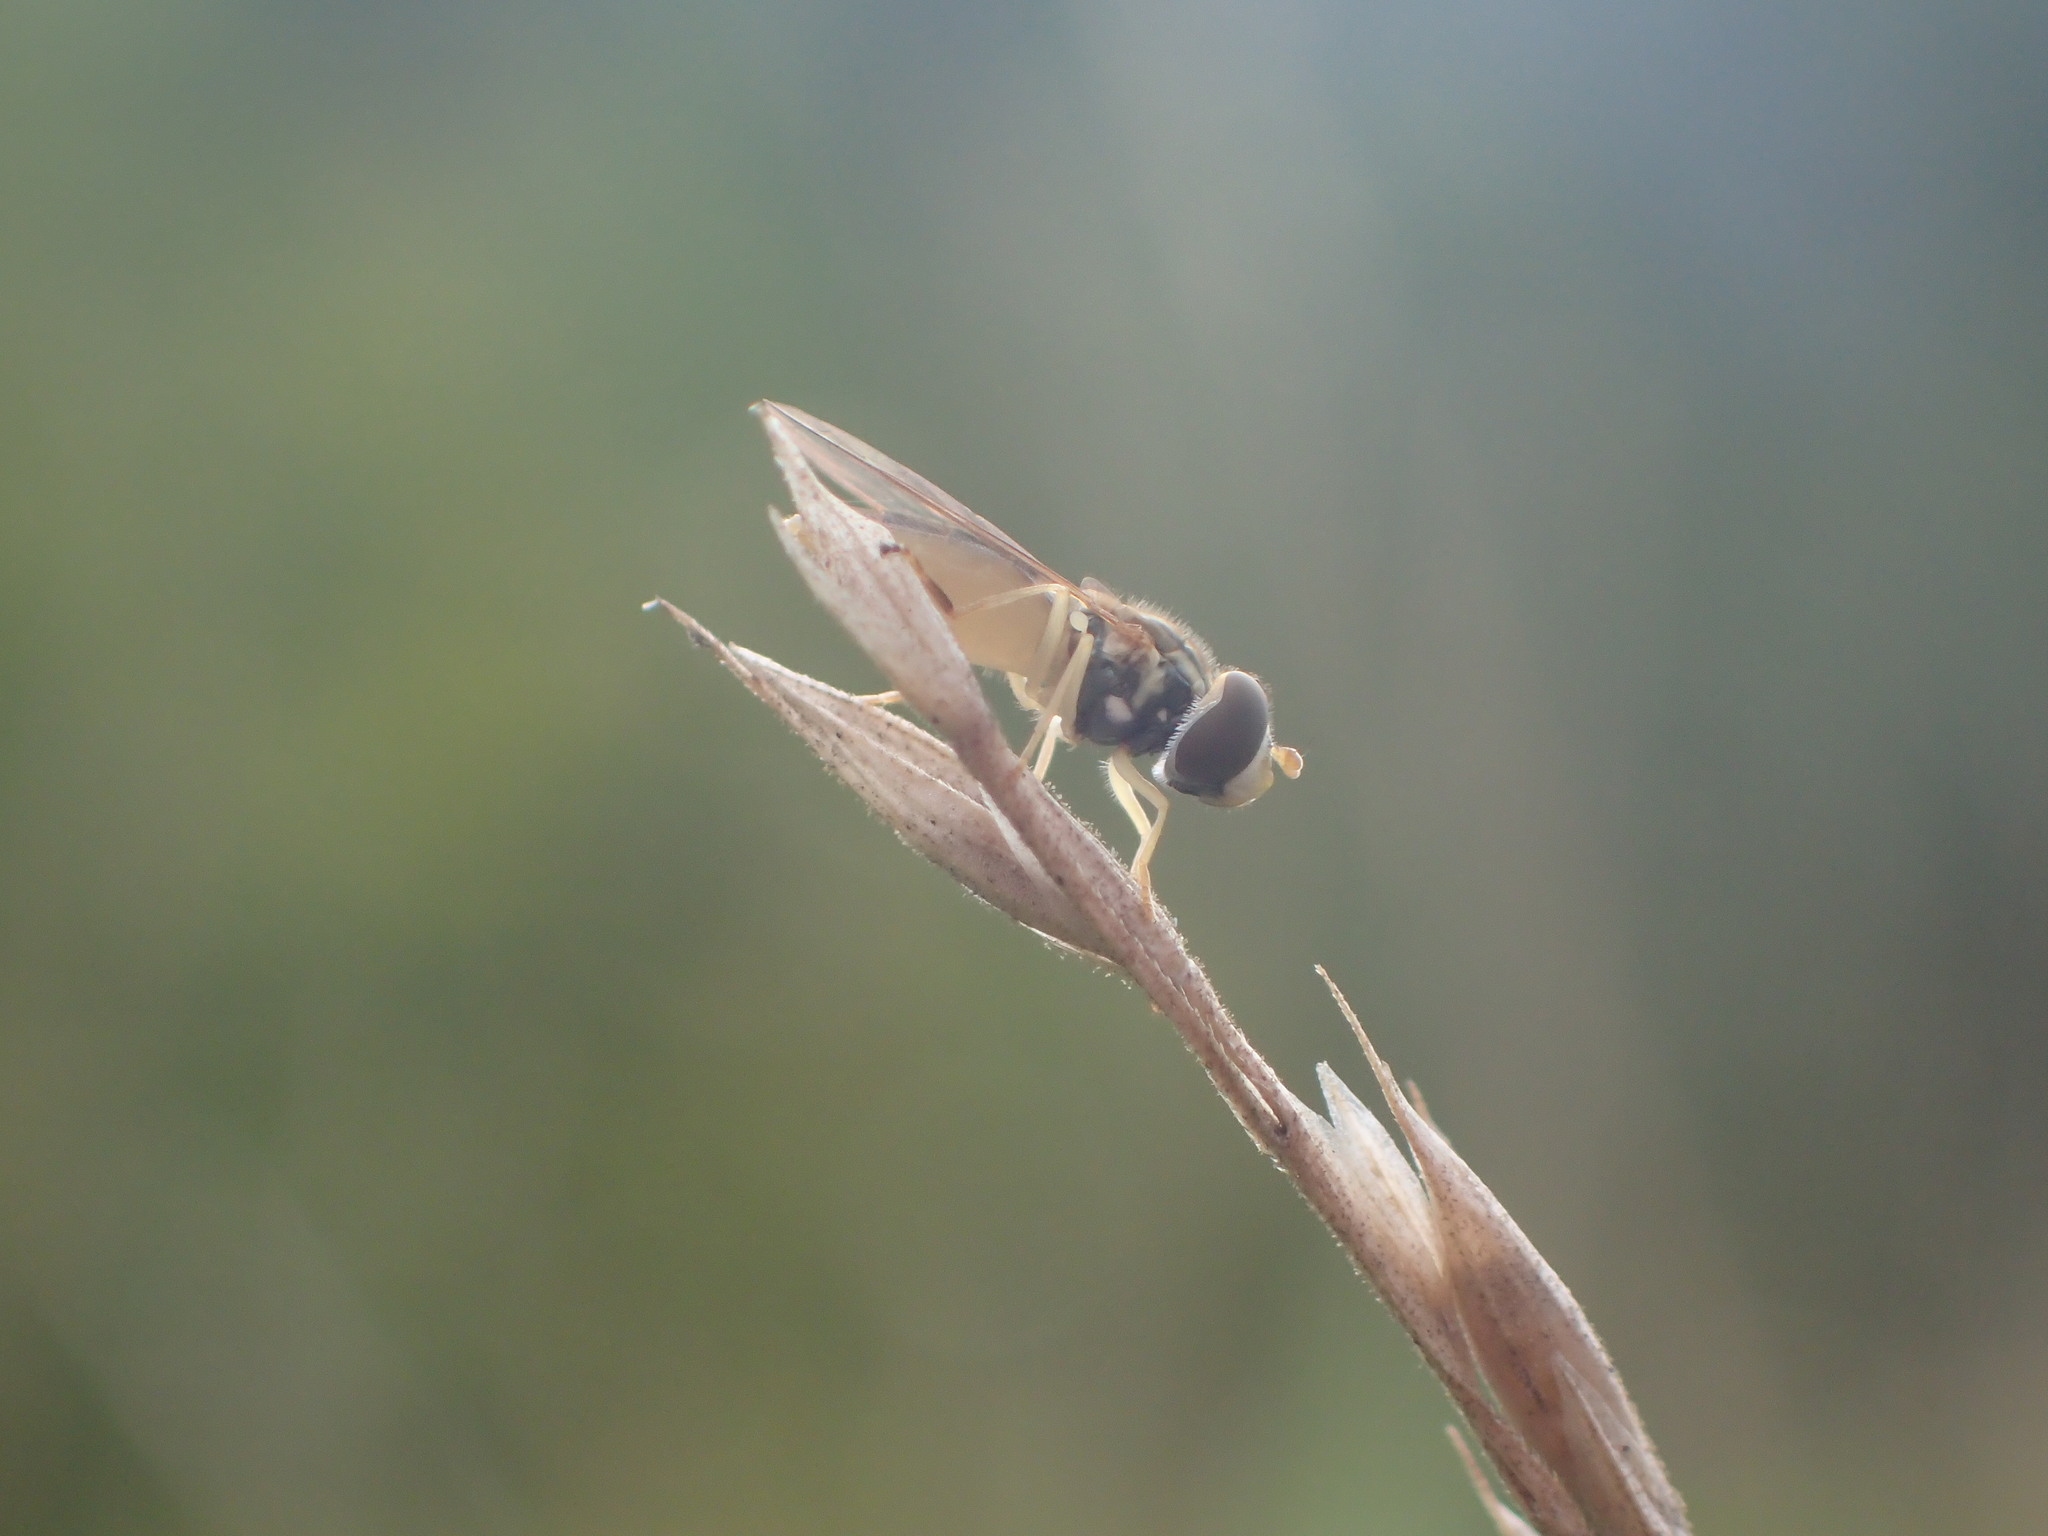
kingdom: Animalia
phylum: Arthropoda
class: Insecta
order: Diptera
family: Syrphidae
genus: Toxomerus
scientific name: Toxomerus marginatus
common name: Syrphid fly
